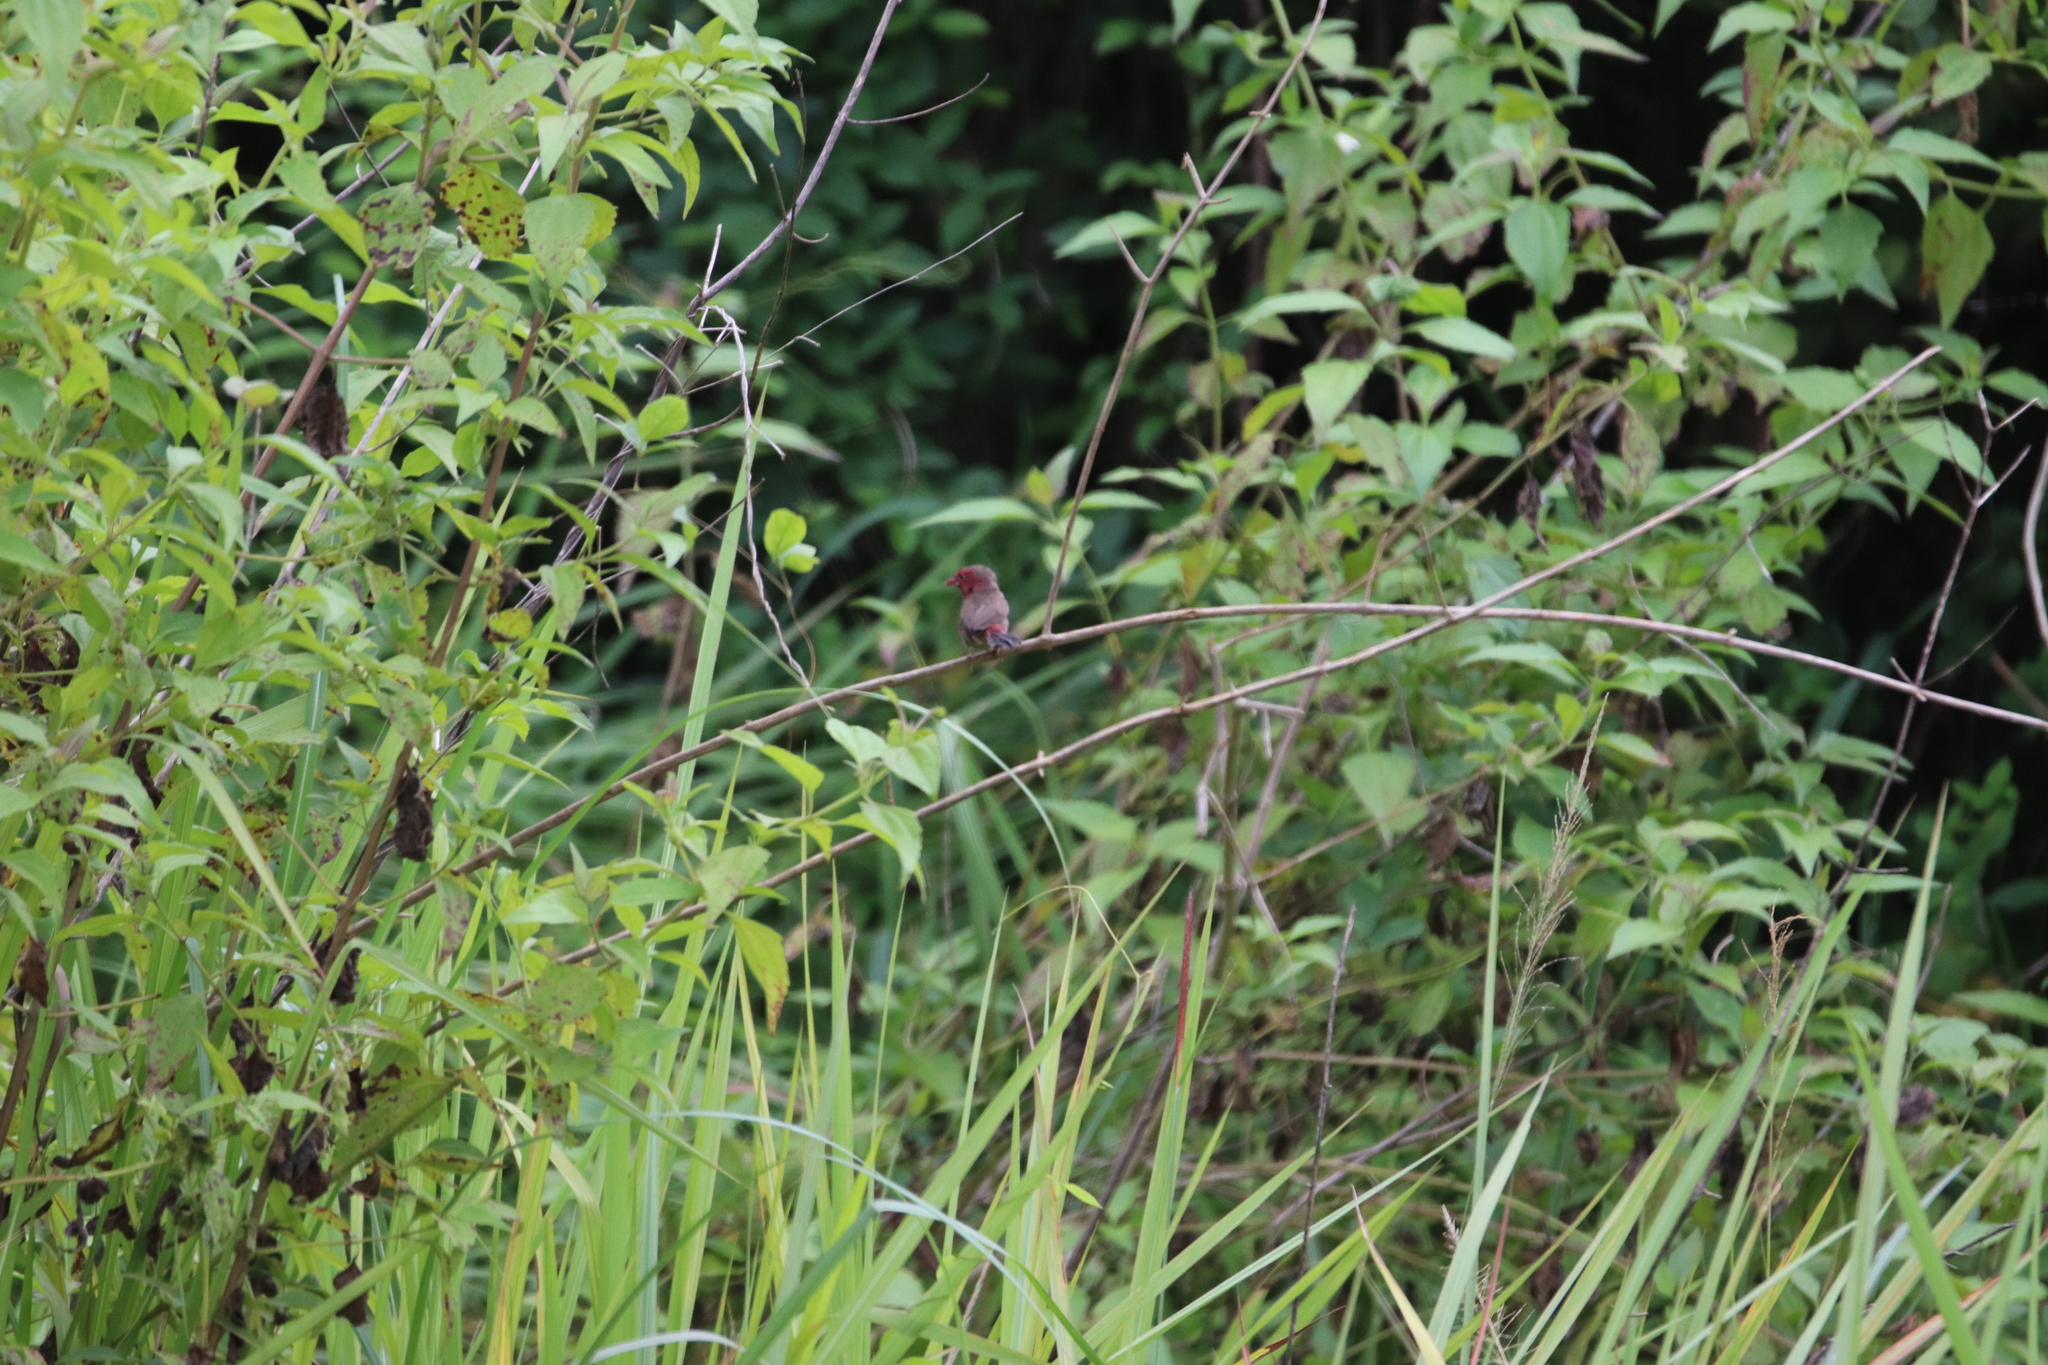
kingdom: Animalia
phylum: Chordata
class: Aves
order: Passeriformes
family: Estrildidae
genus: Lagonosticta
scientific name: Lagonosticta rufopicta
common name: Bar-breasted firefinch
